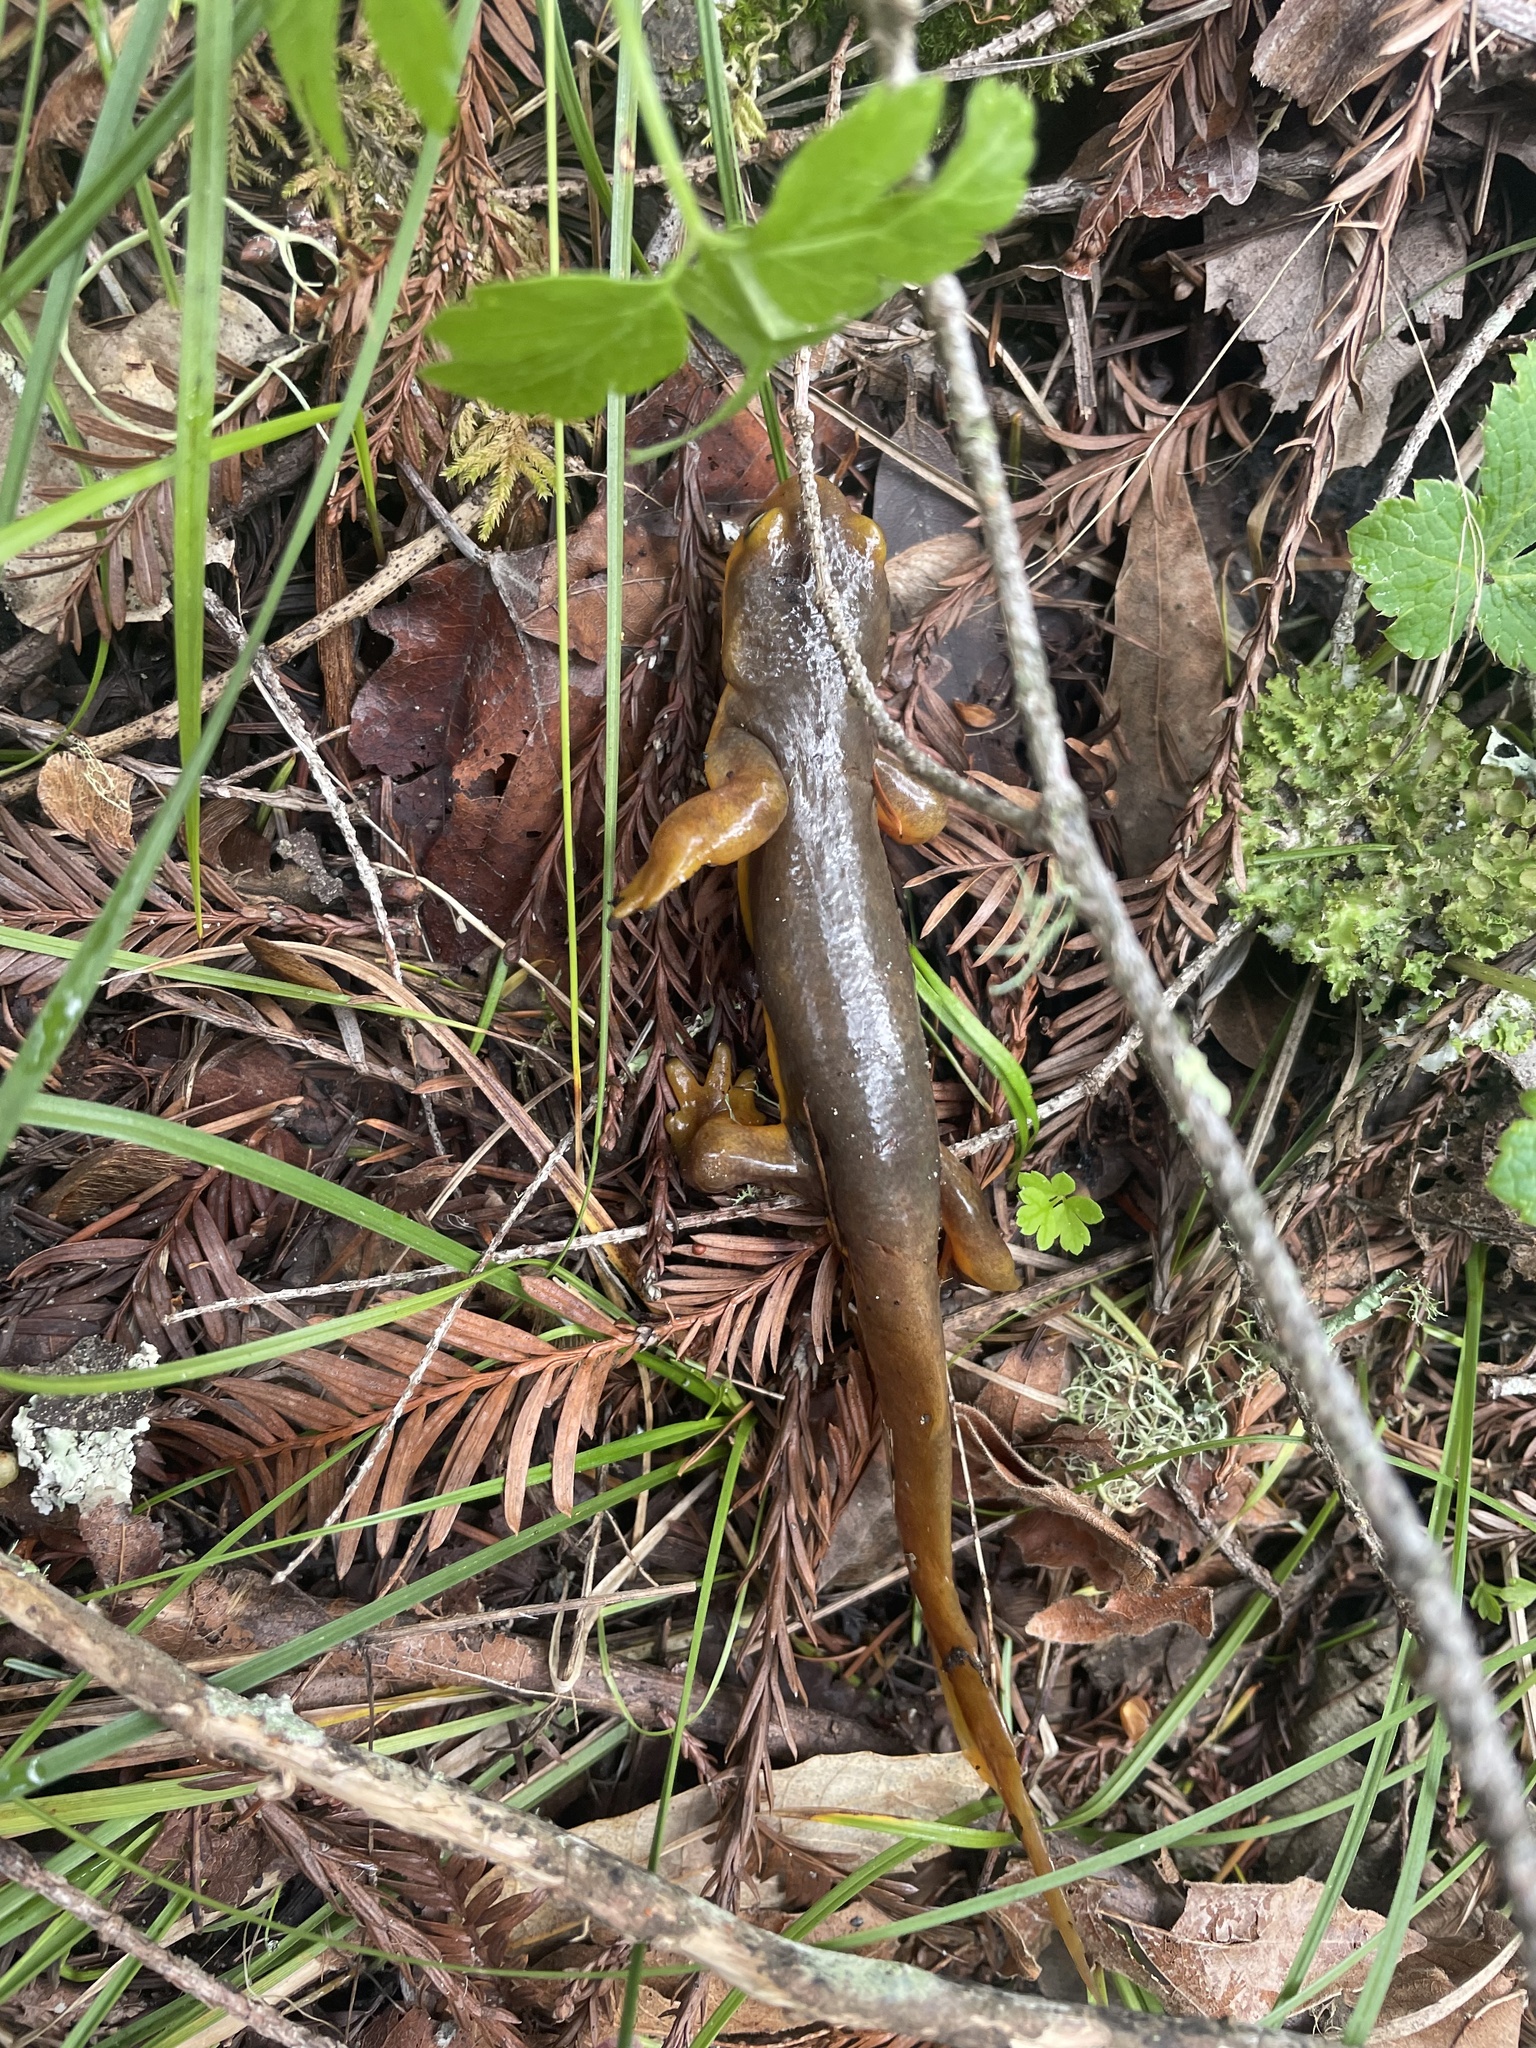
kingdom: Animalia
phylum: Chordata
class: Amphibia
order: Caudata
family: Salamandridae
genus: Taricha
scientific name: Taricha torosa
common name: California newt
